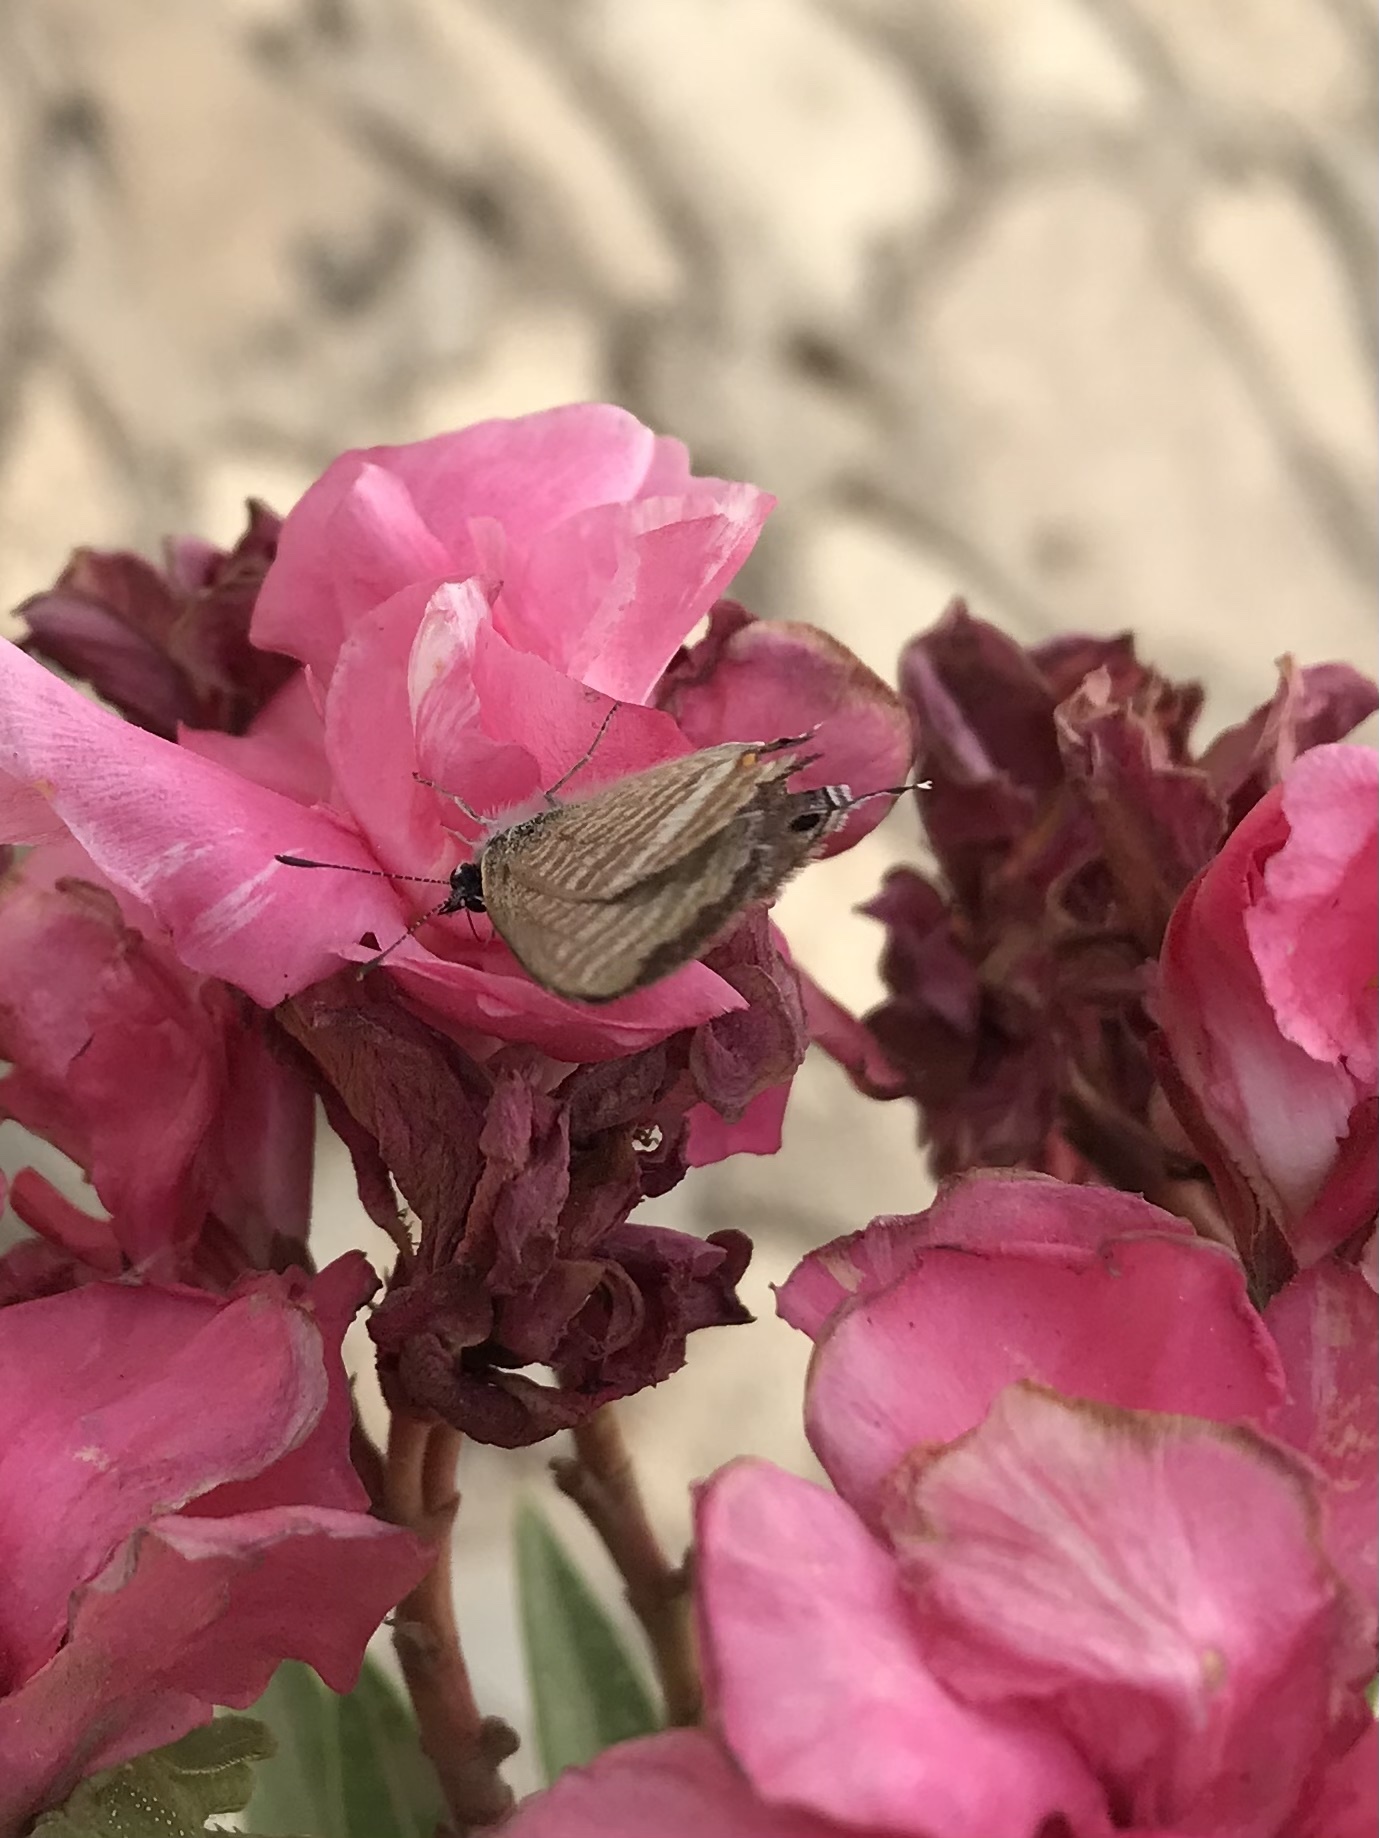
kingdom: Animalia
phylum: Arthropoda
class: Insecta
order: Lepidoptera
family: Lycaenidae
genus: Lampides
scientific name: Lampides boeticus
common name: Long-tailed blue
